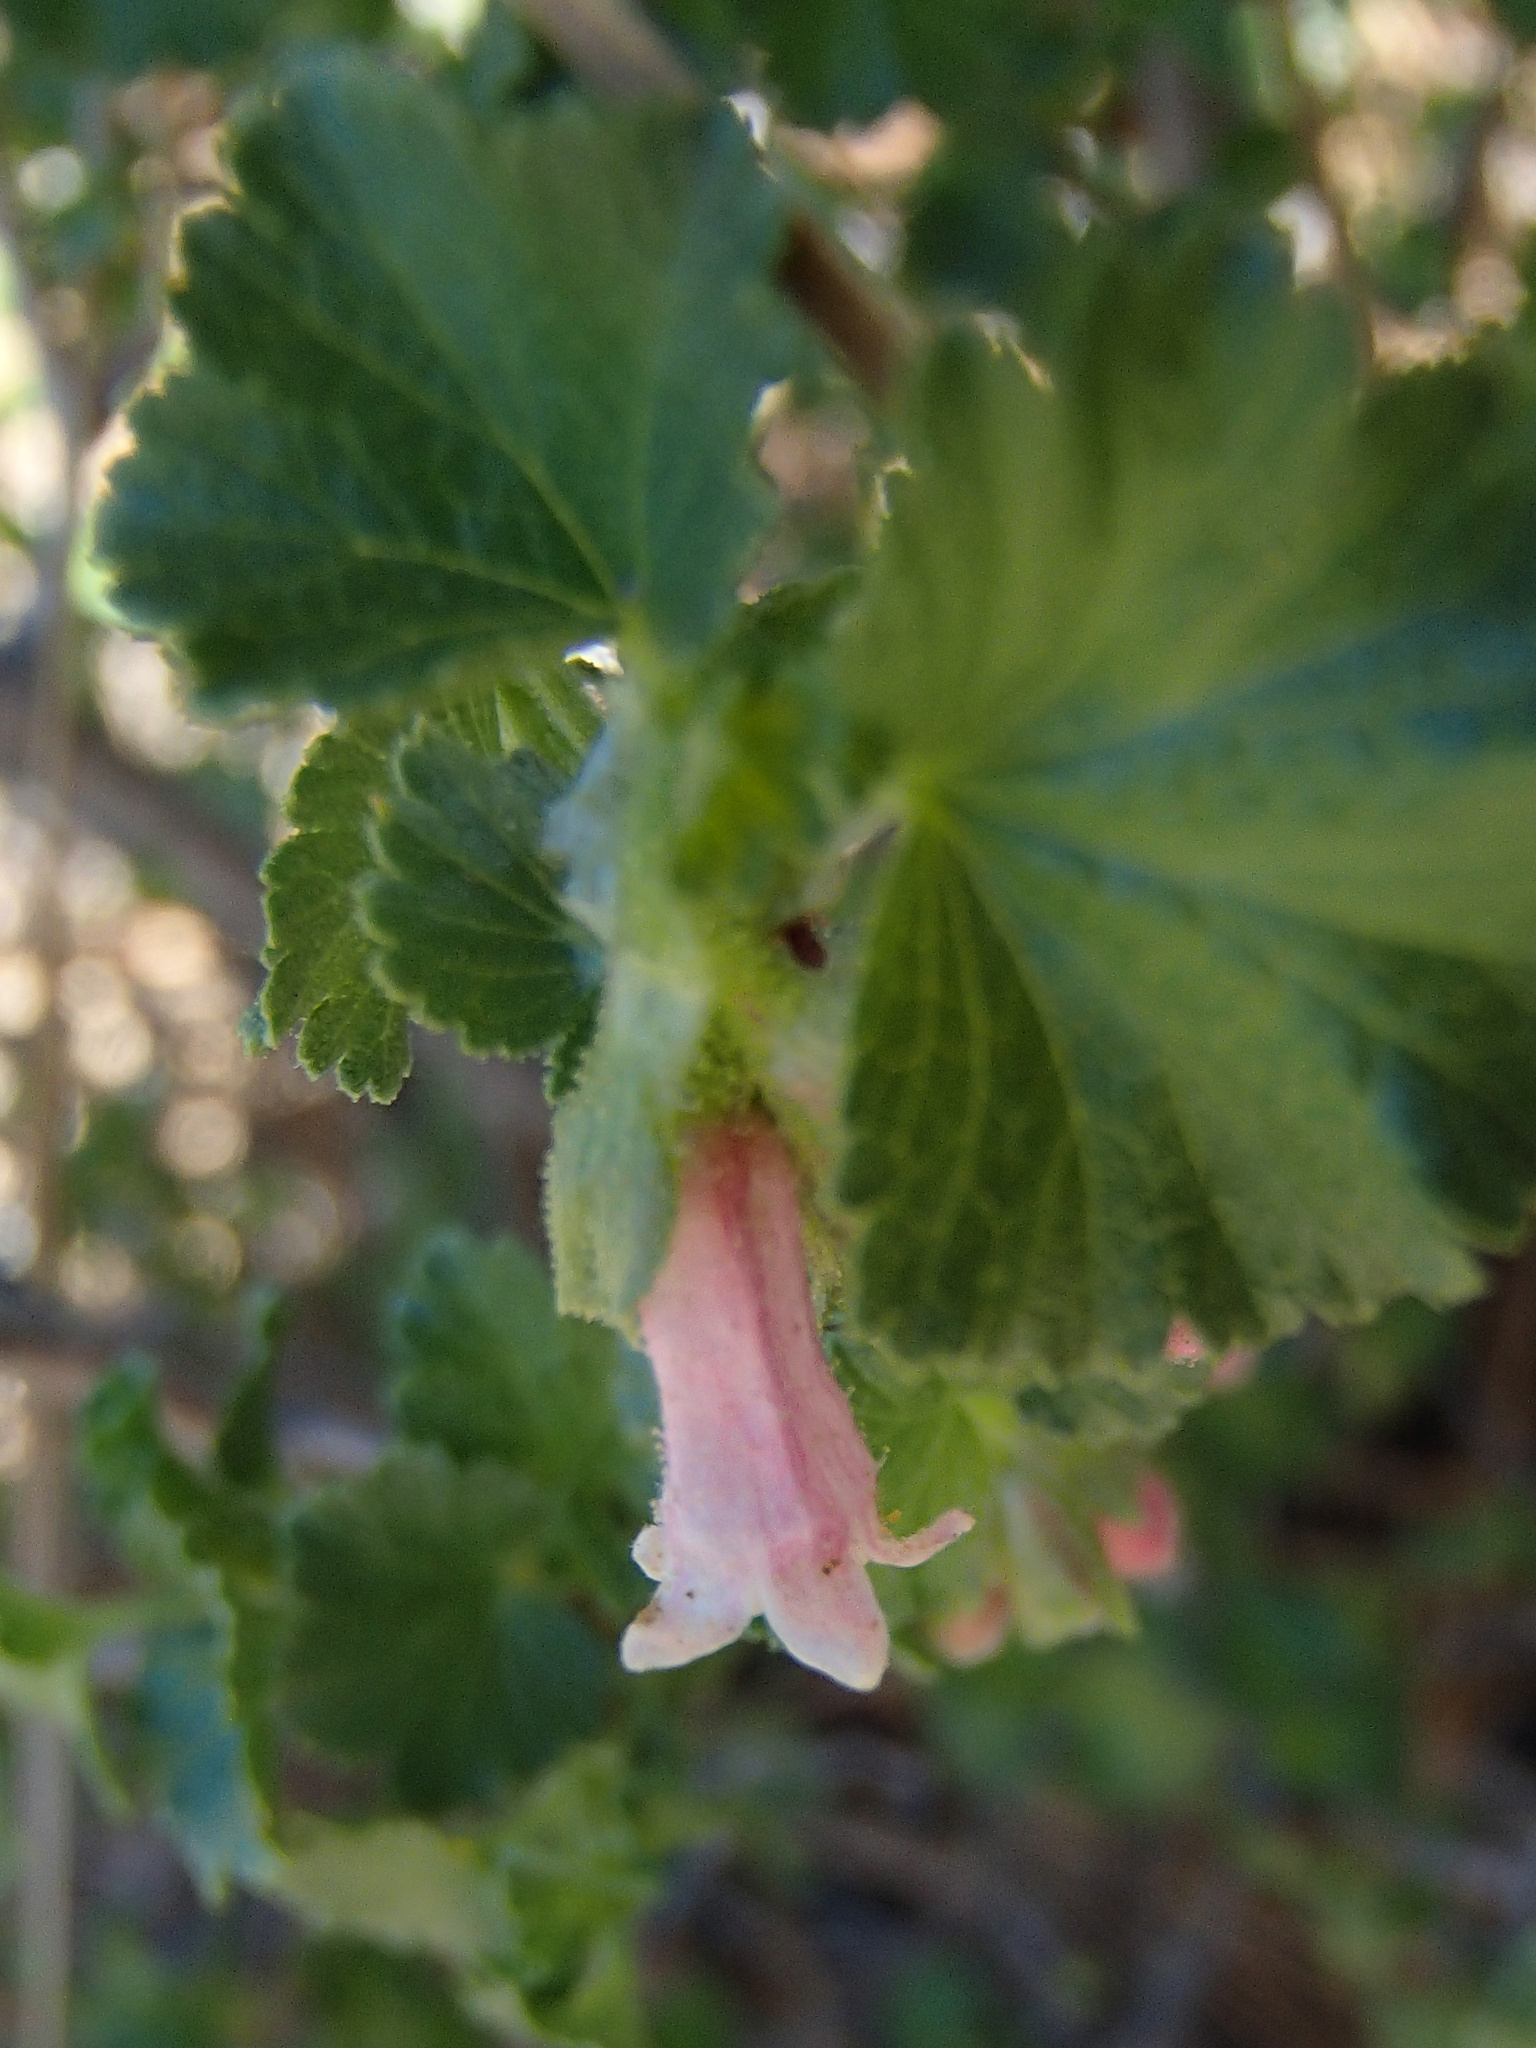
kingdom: Plantae
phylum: Tracheophyta
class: Magnoliopsida
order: Saxifragales
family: Grossulariaceae
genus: Ribes
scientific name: Ribes cereum
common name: Wax currant
